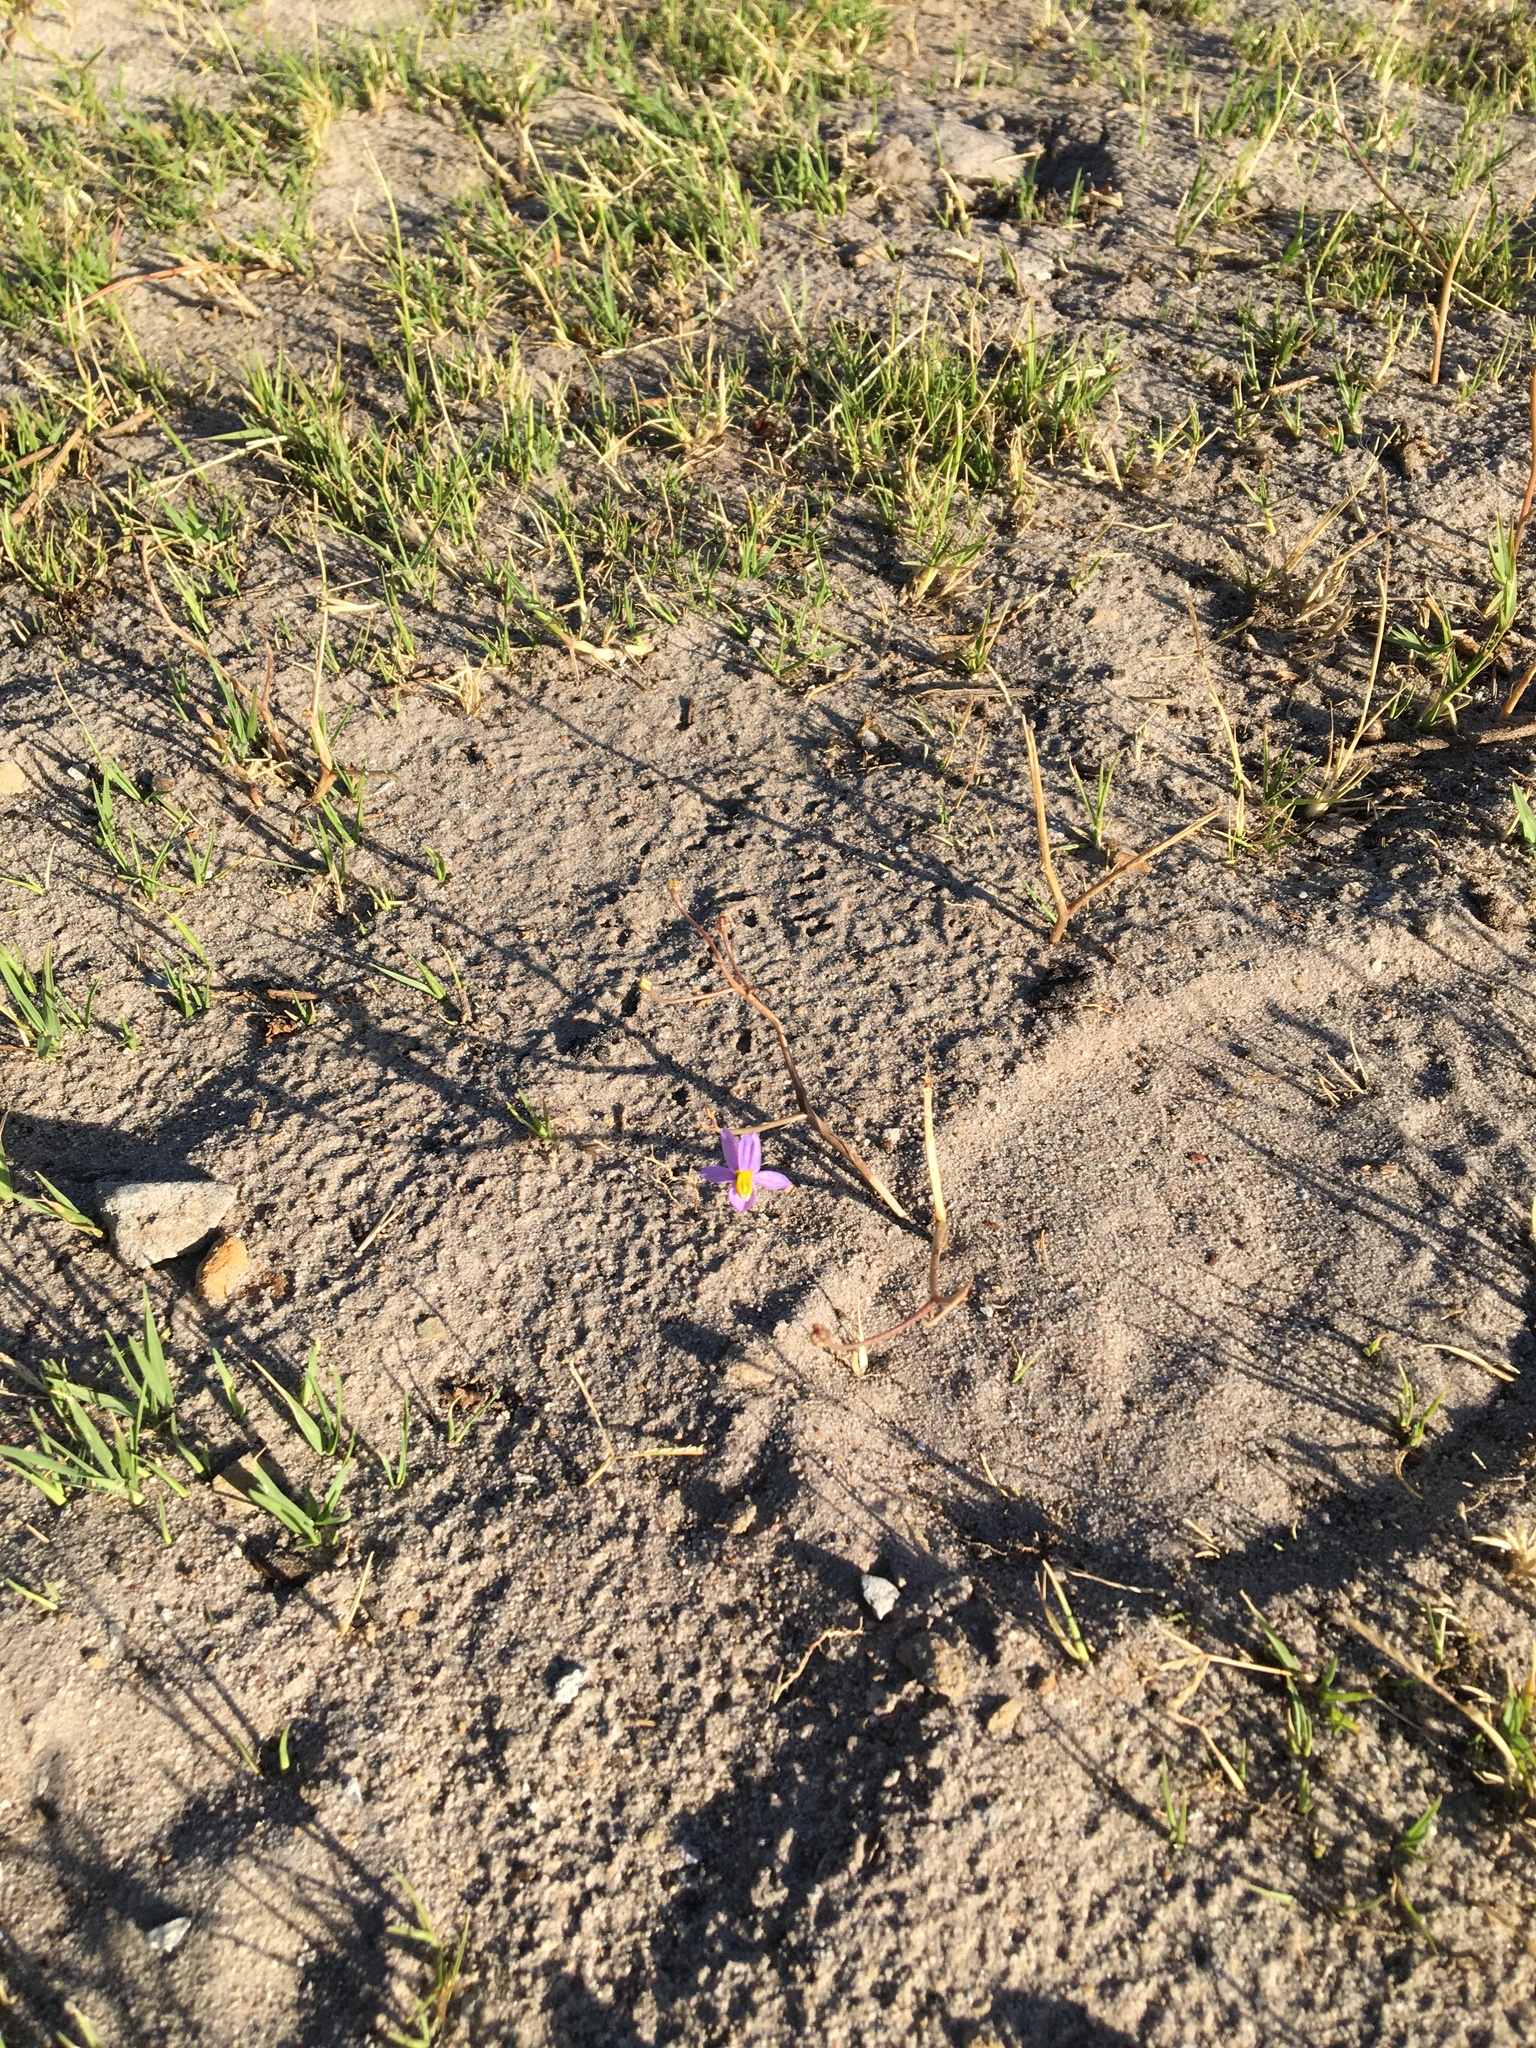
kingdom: Plantae
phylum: Tracheophyta
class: Liliopsida
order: Asparagales
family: Tecophilaeaceae
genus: Cyanella
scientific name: Cyanella hyacinthoides
